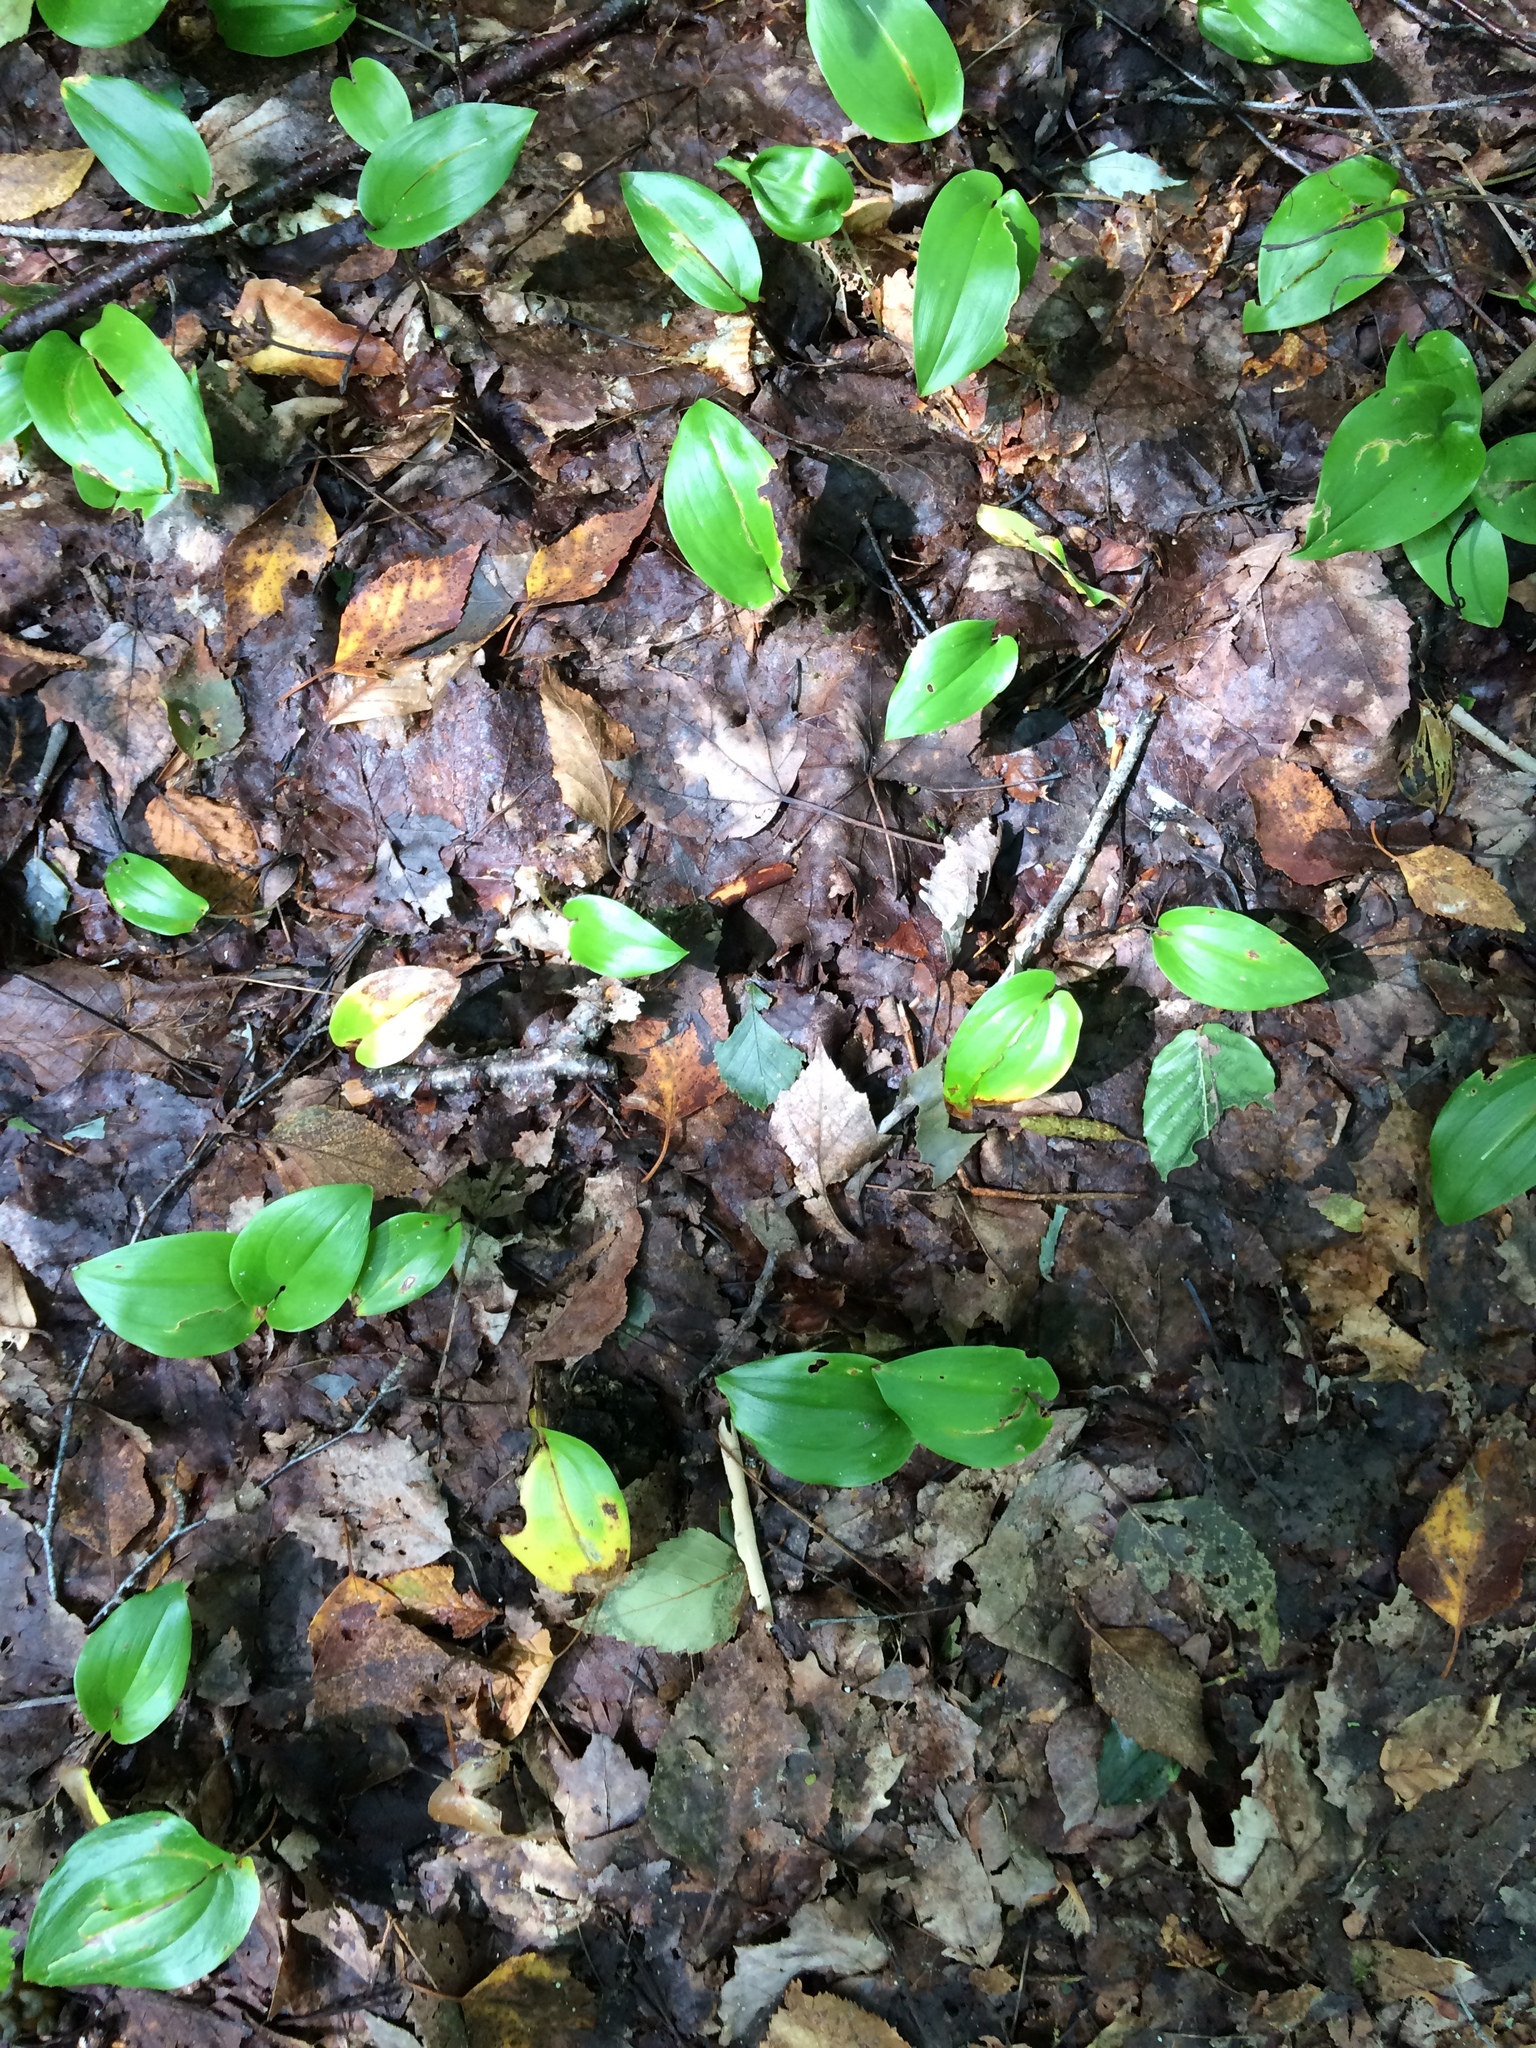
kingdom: Plantae
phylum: Tracheophyta
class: Liliopsida
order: Asparagales
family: Asparagaceae
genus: Maianthemum
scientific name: Maianthemum canadense
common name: False lily-of-the-valley
